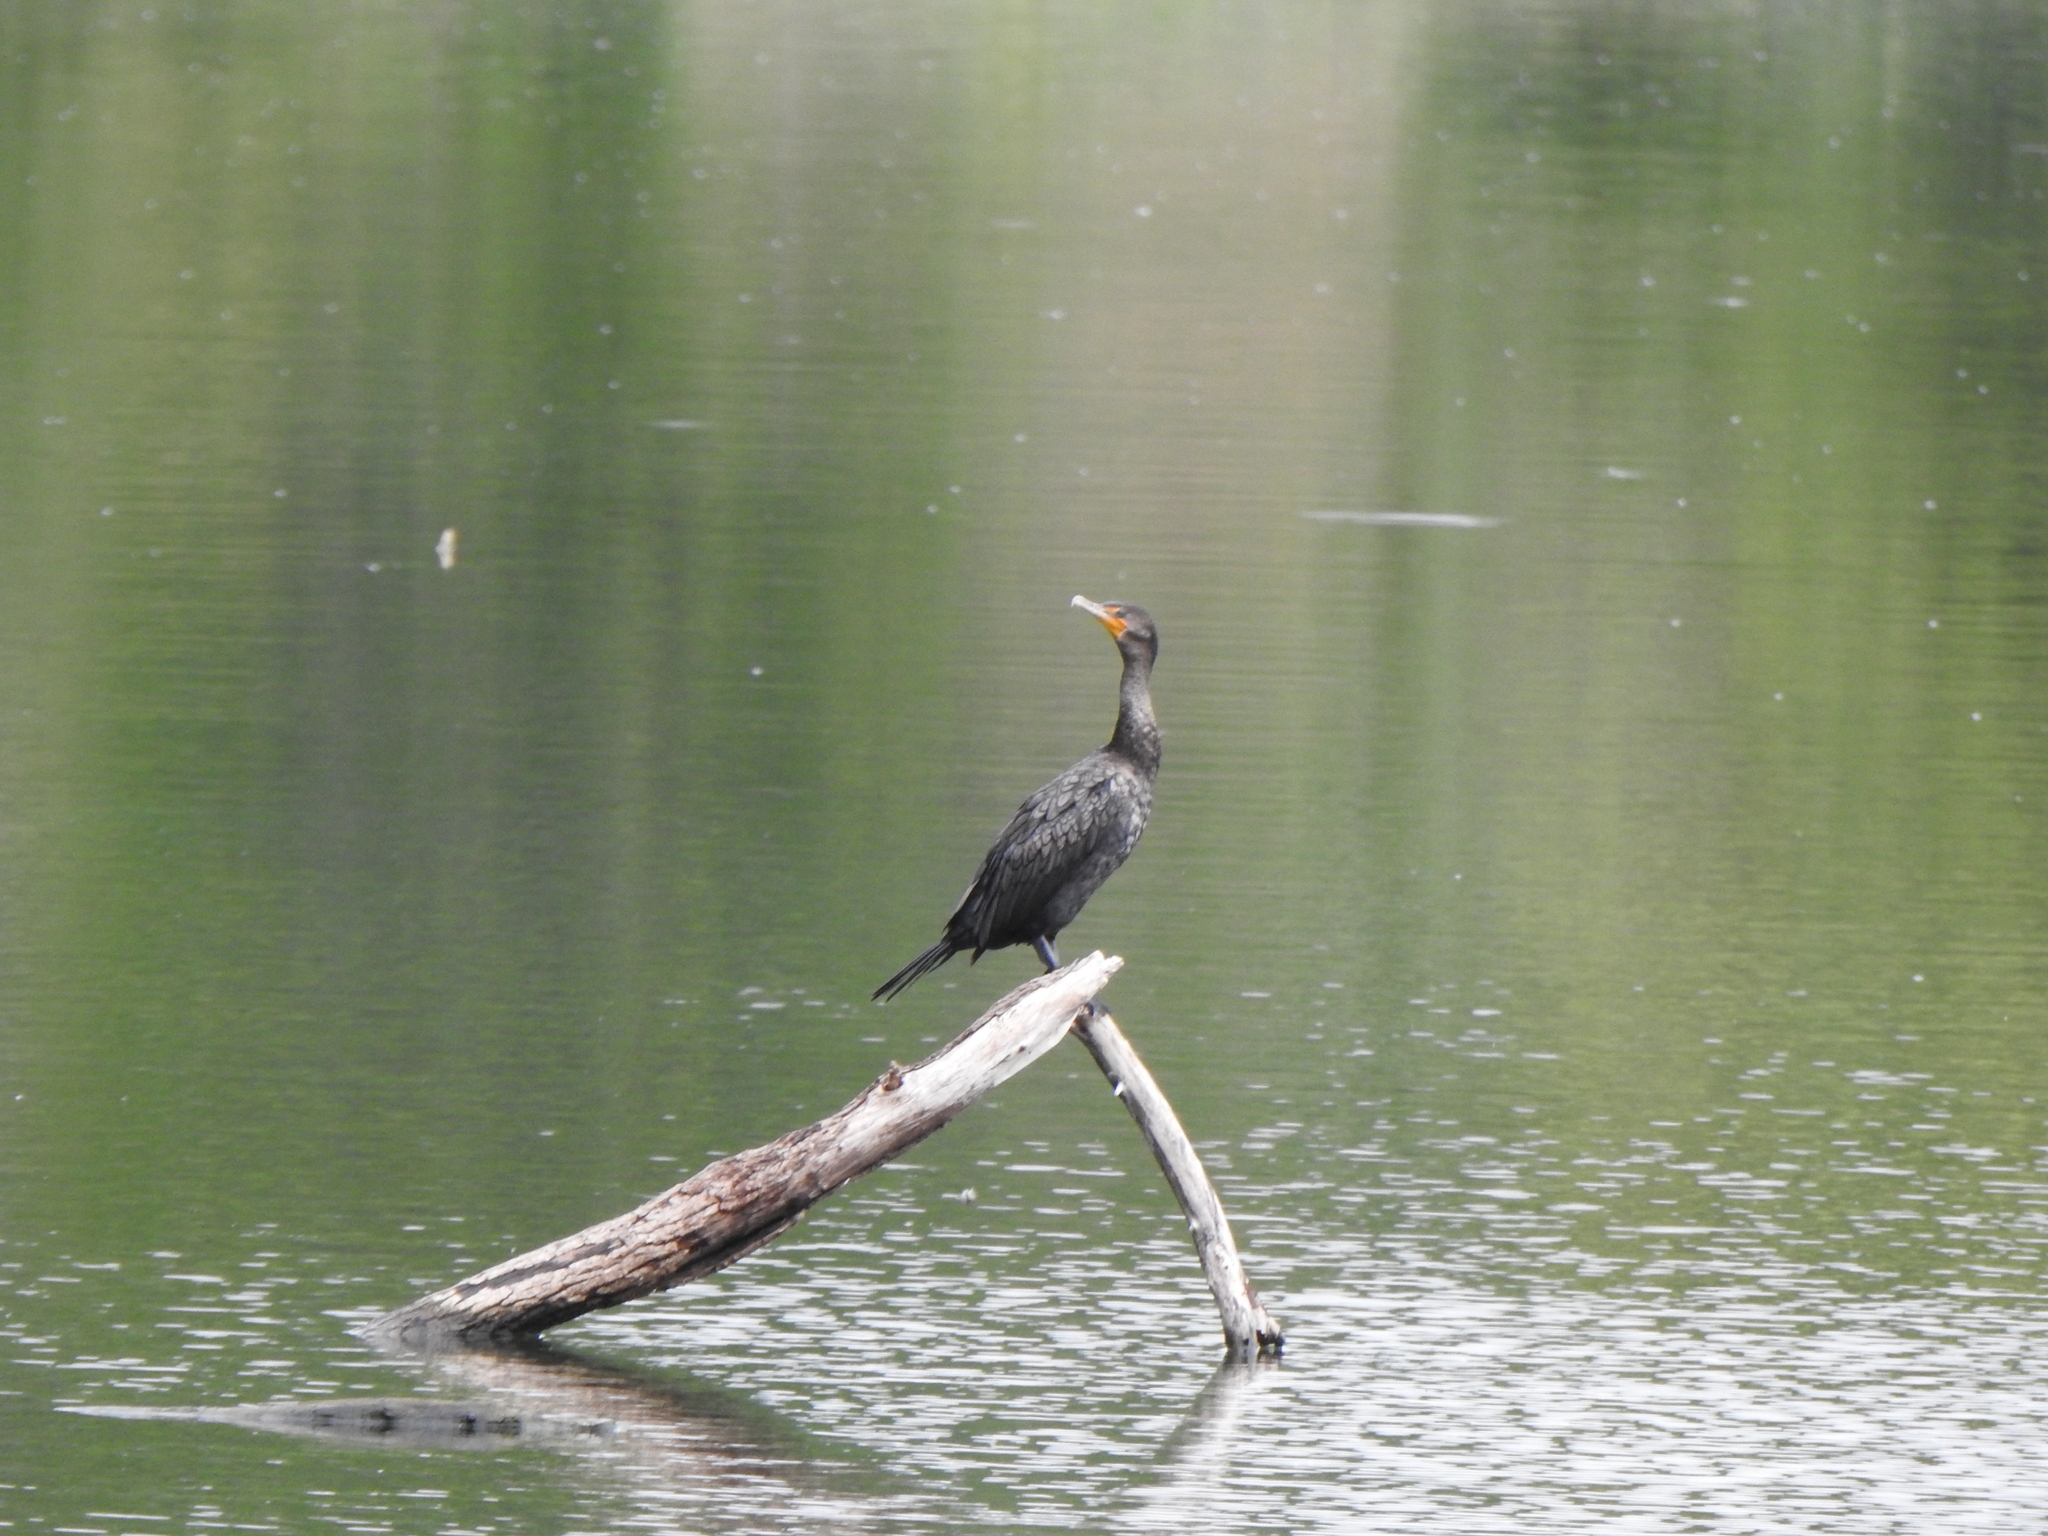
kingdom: Animalia
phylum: Chordata
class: Aves
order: Suliformes
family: Phalacrocoracidae
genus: Phalacrocorax
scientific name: Phalacrocorax auritus
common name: Double-crested cormorant
